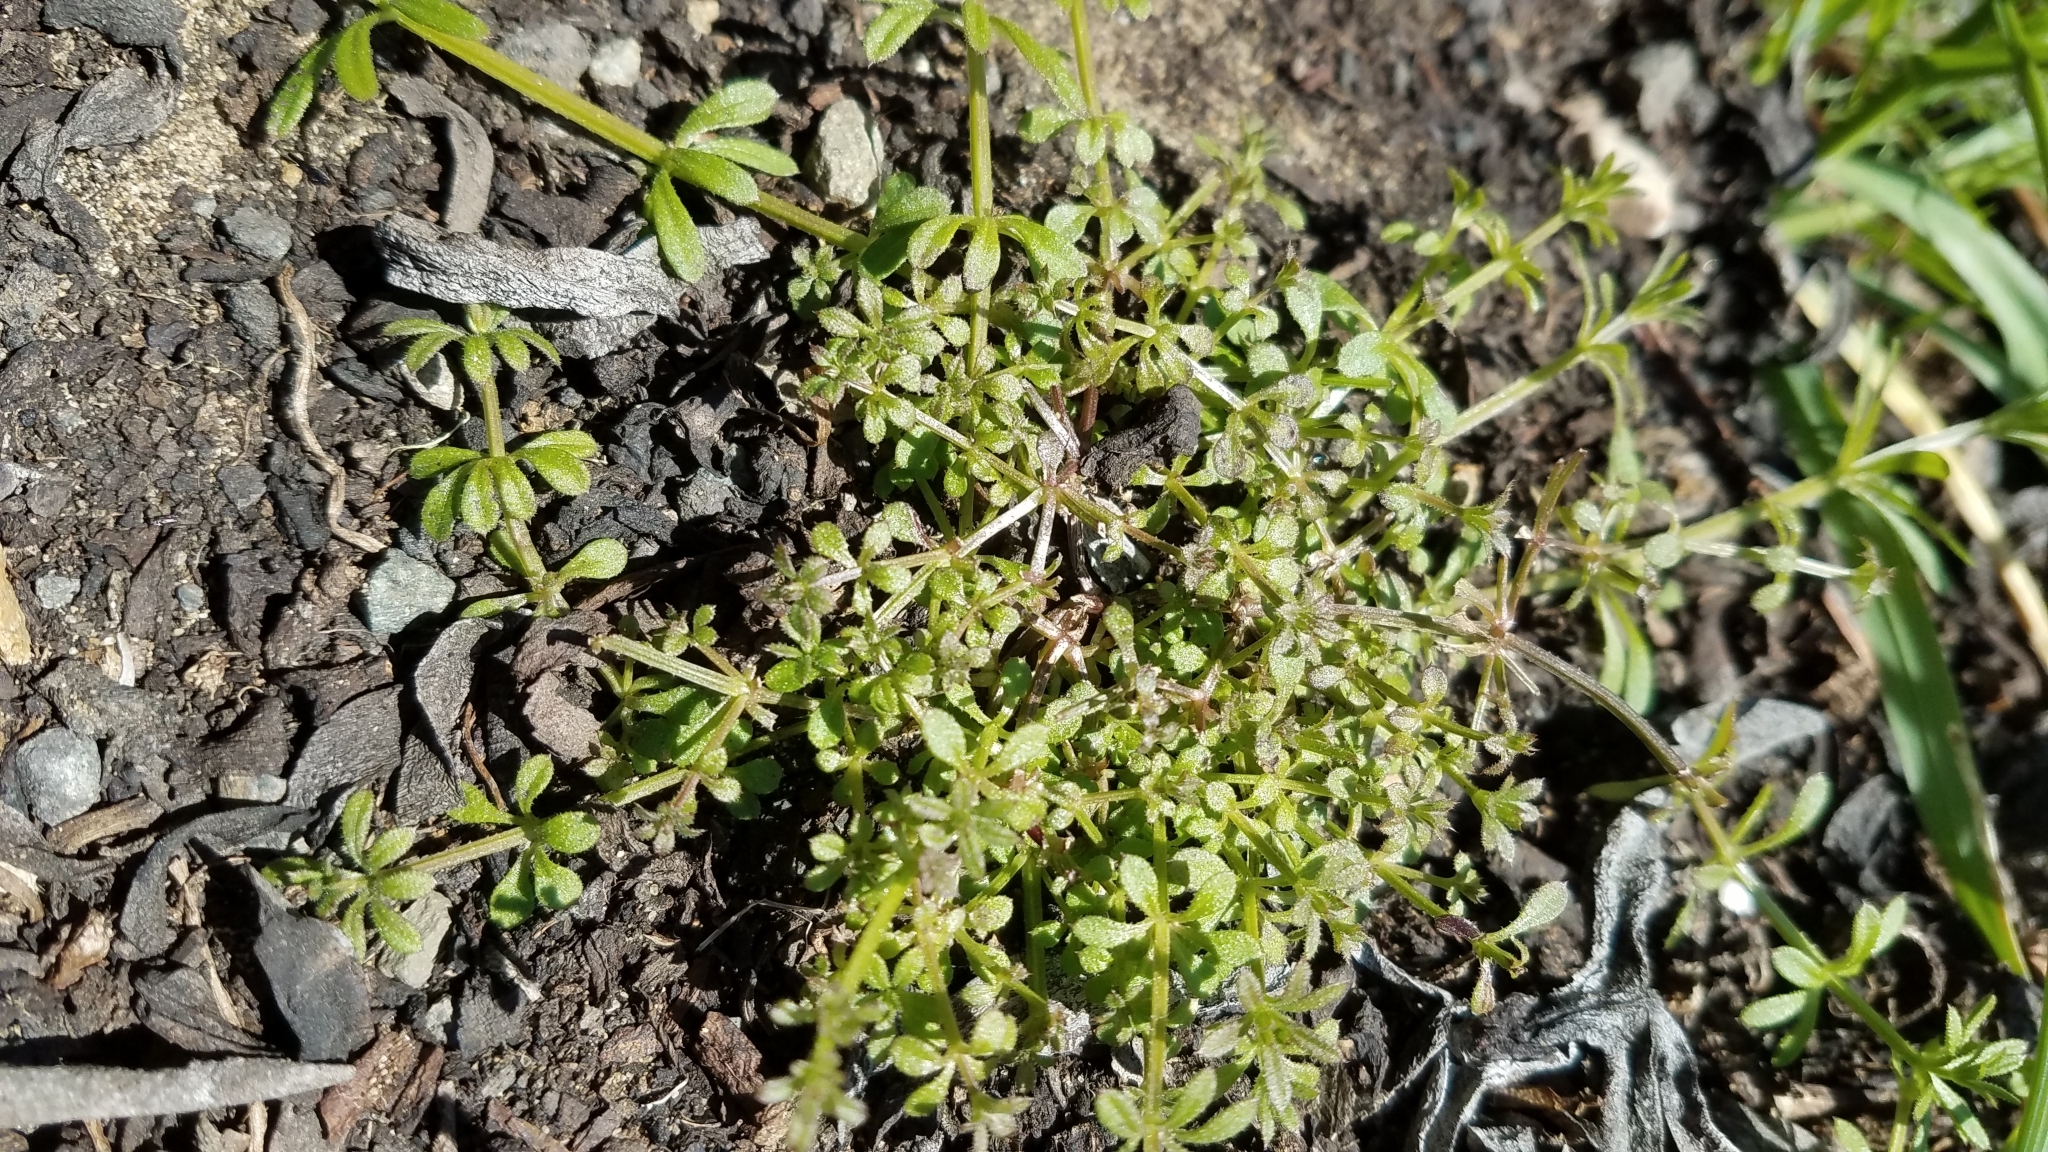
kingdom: Plantae
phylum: Tracheophyta
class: Magnoliopsida
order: Gentianales
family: Rubiaceae
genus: Galium
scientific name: Galium aparine
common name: Cleavers
